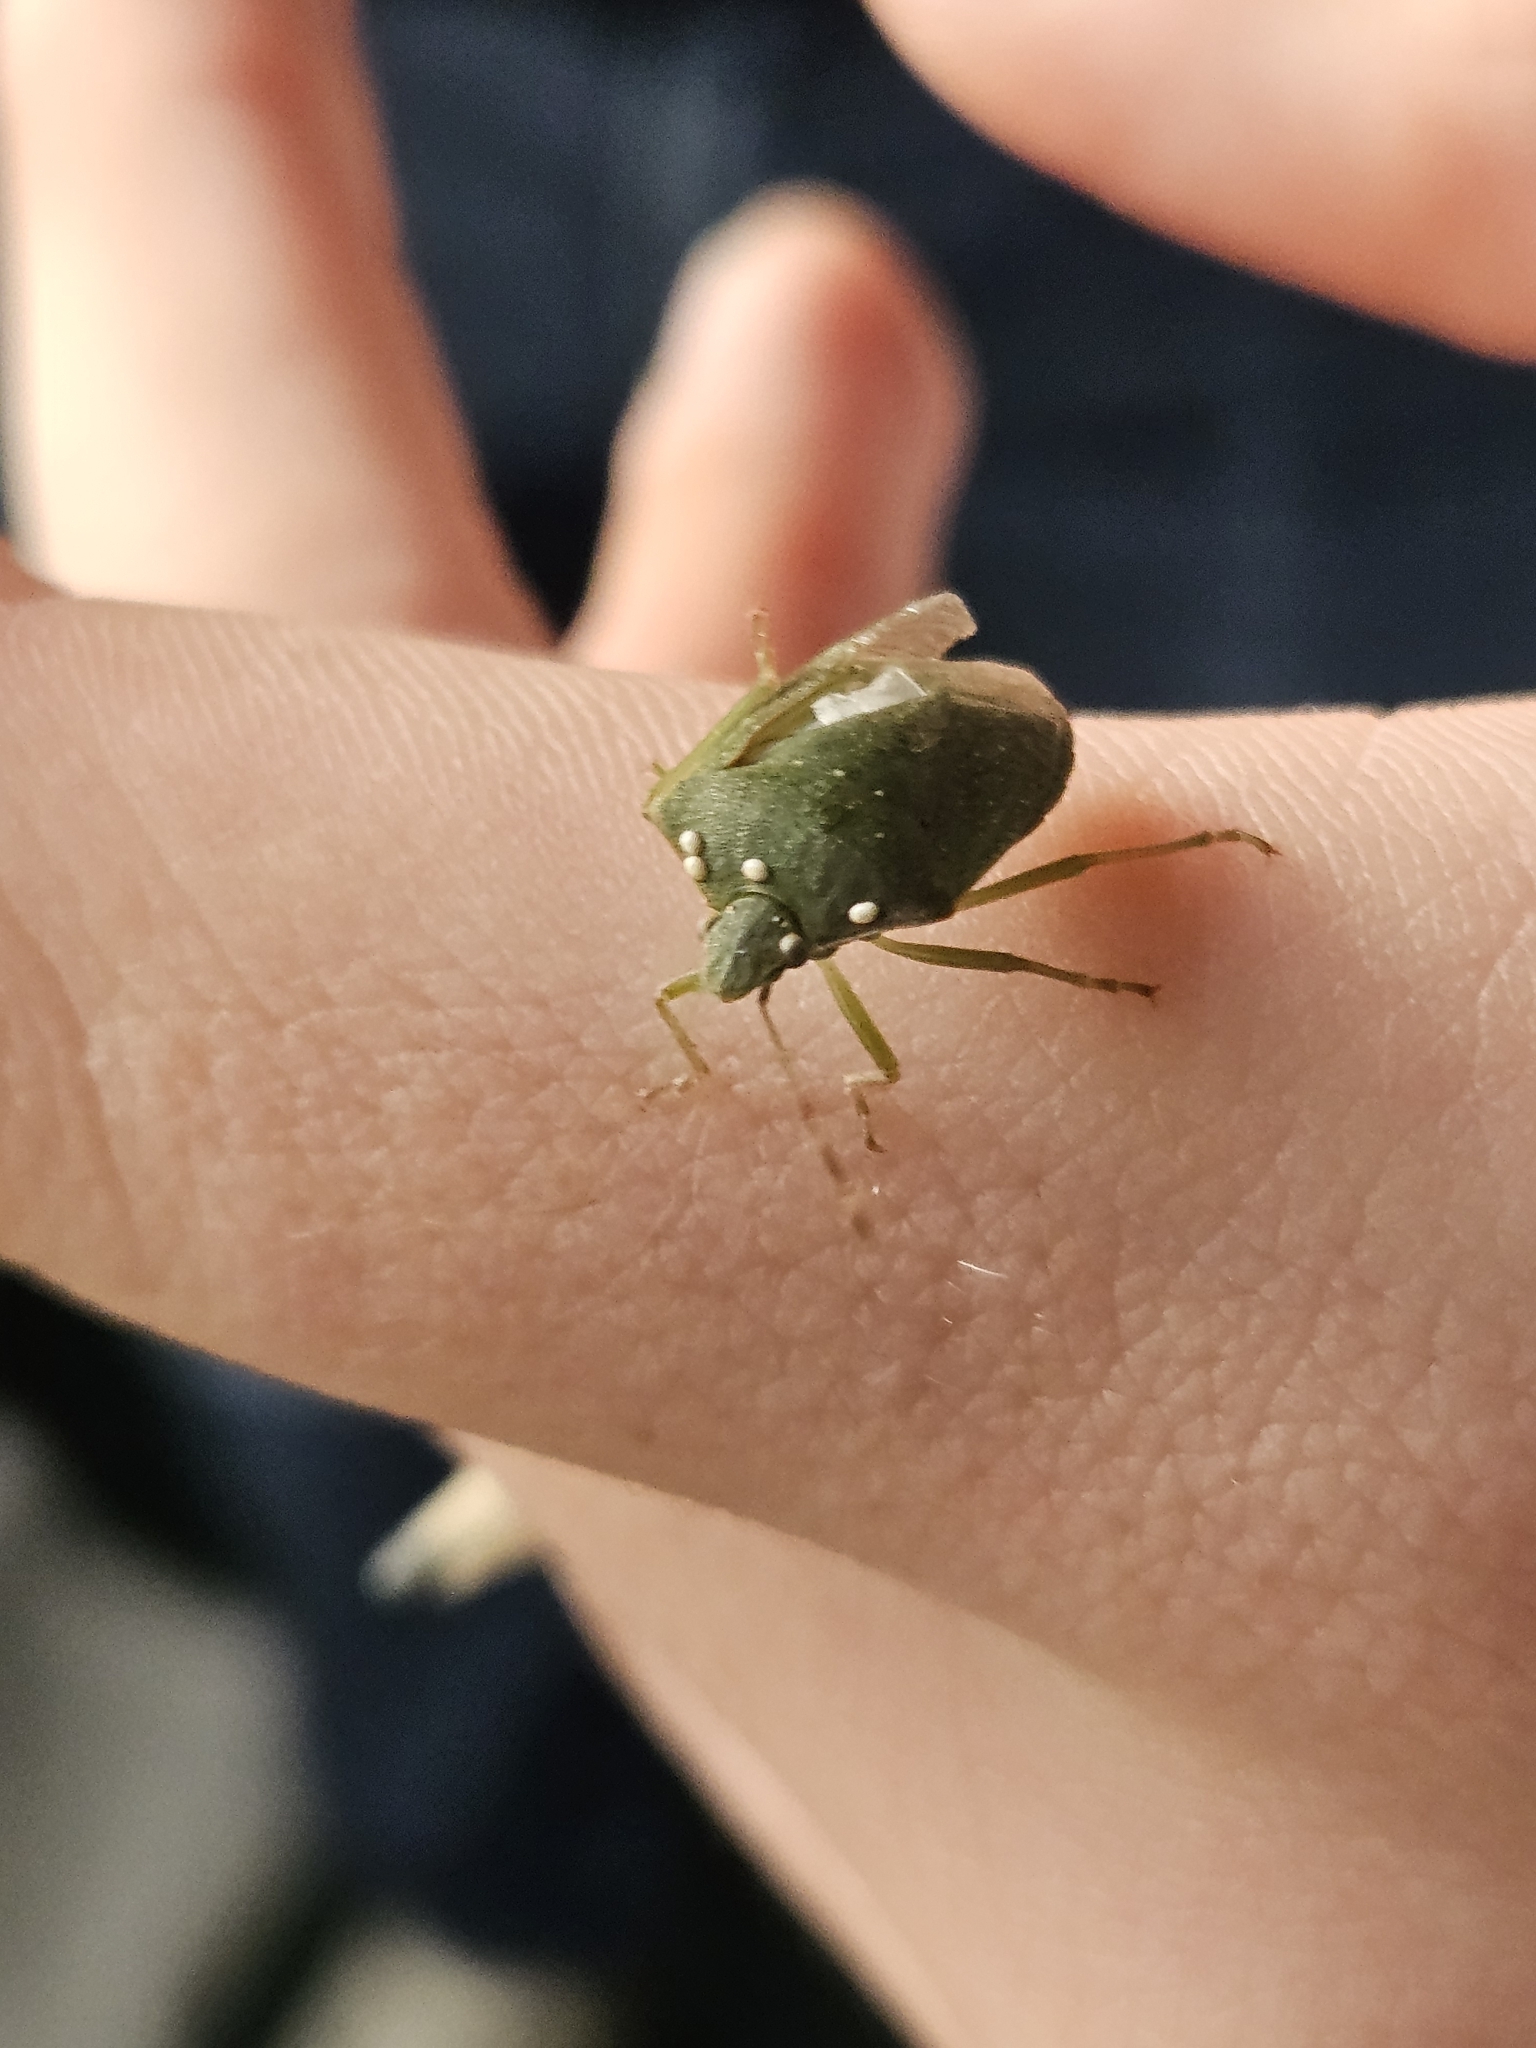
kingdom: Animalia
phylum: Arthropoda
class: Insecta
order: Hemiptera
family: Pentatomidae
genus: Nezara
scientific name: Nezara viridula
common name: Southern green stink bug
